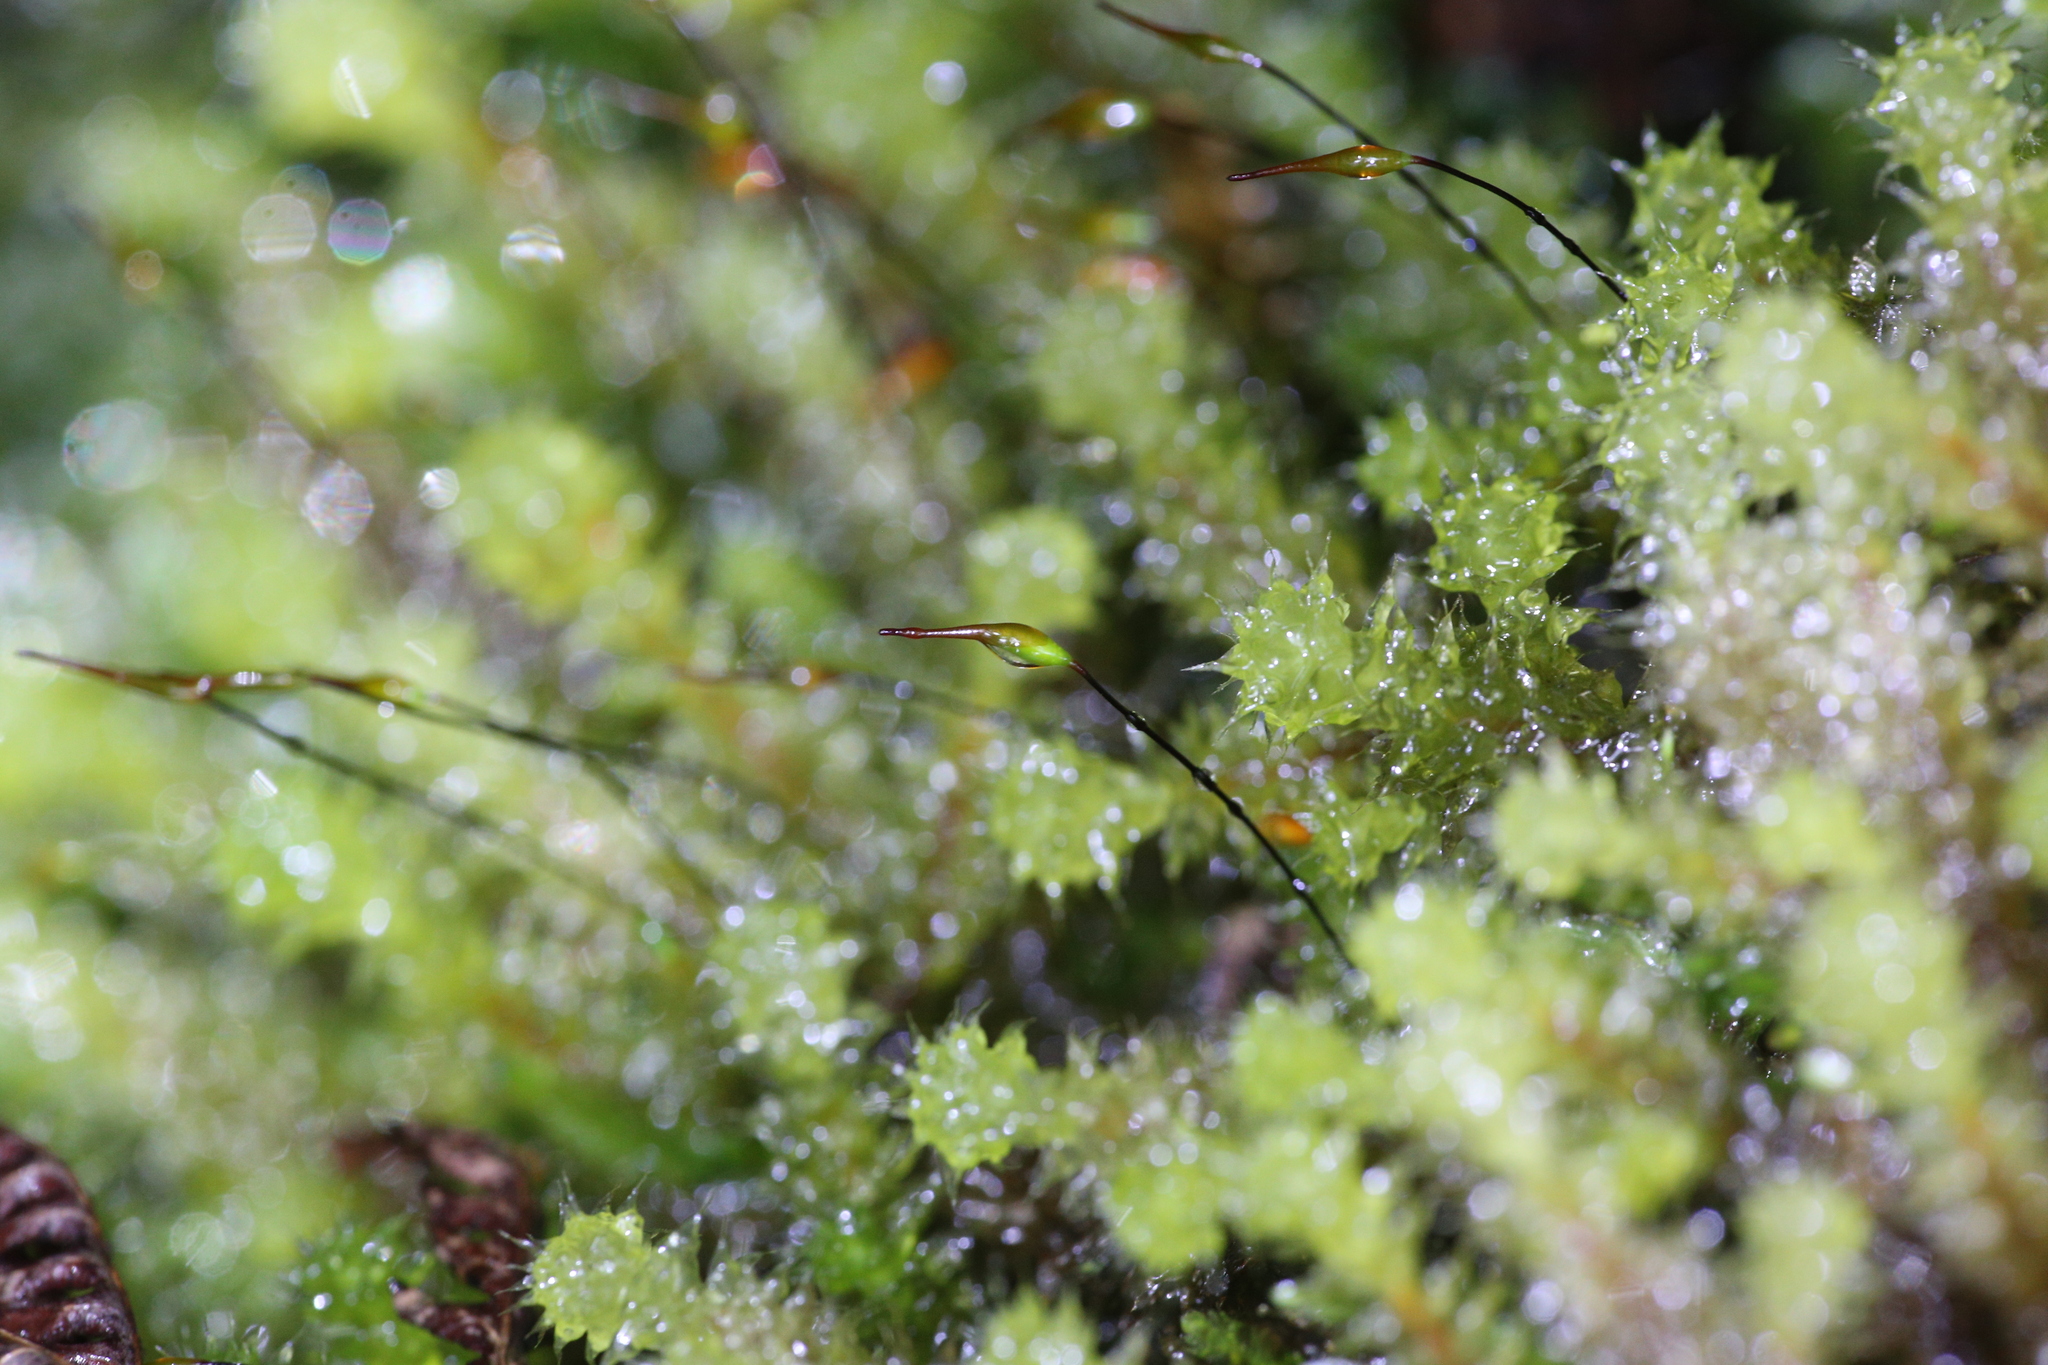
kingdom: Plantae
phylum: Bryophyta
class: Bryopsida
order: Ptychomniales
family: Ptychomniaceae
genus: Ptychomnion
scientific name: Ptychomnion aciculare
